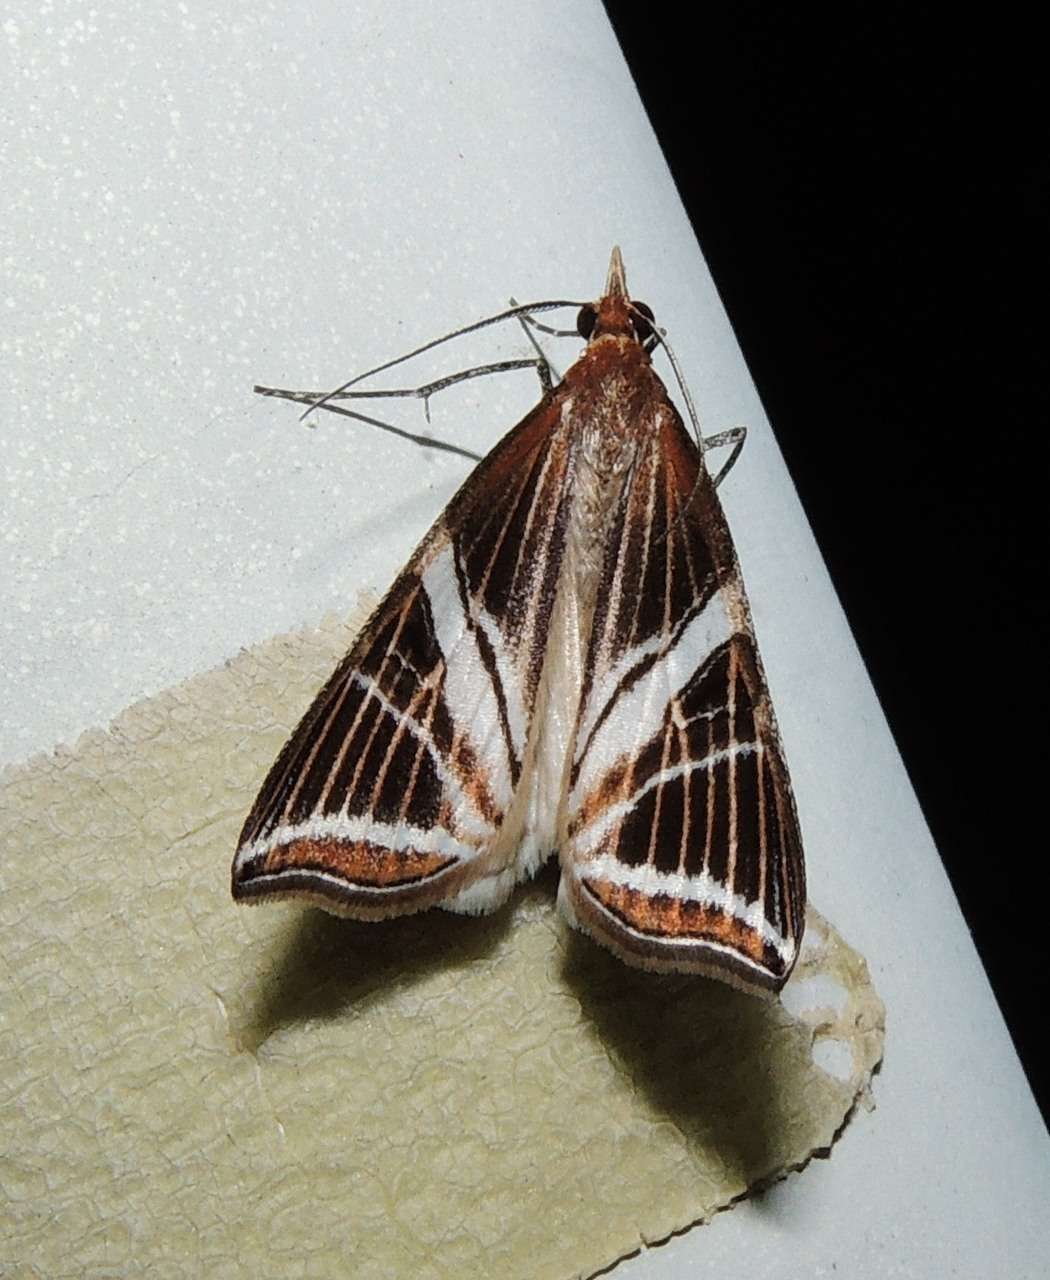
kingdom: Animalia
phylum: Arthropoda
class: Insecta
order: Lepidoptera
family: Geometridae
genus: Phrataria
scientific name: Phrataria transcissata
